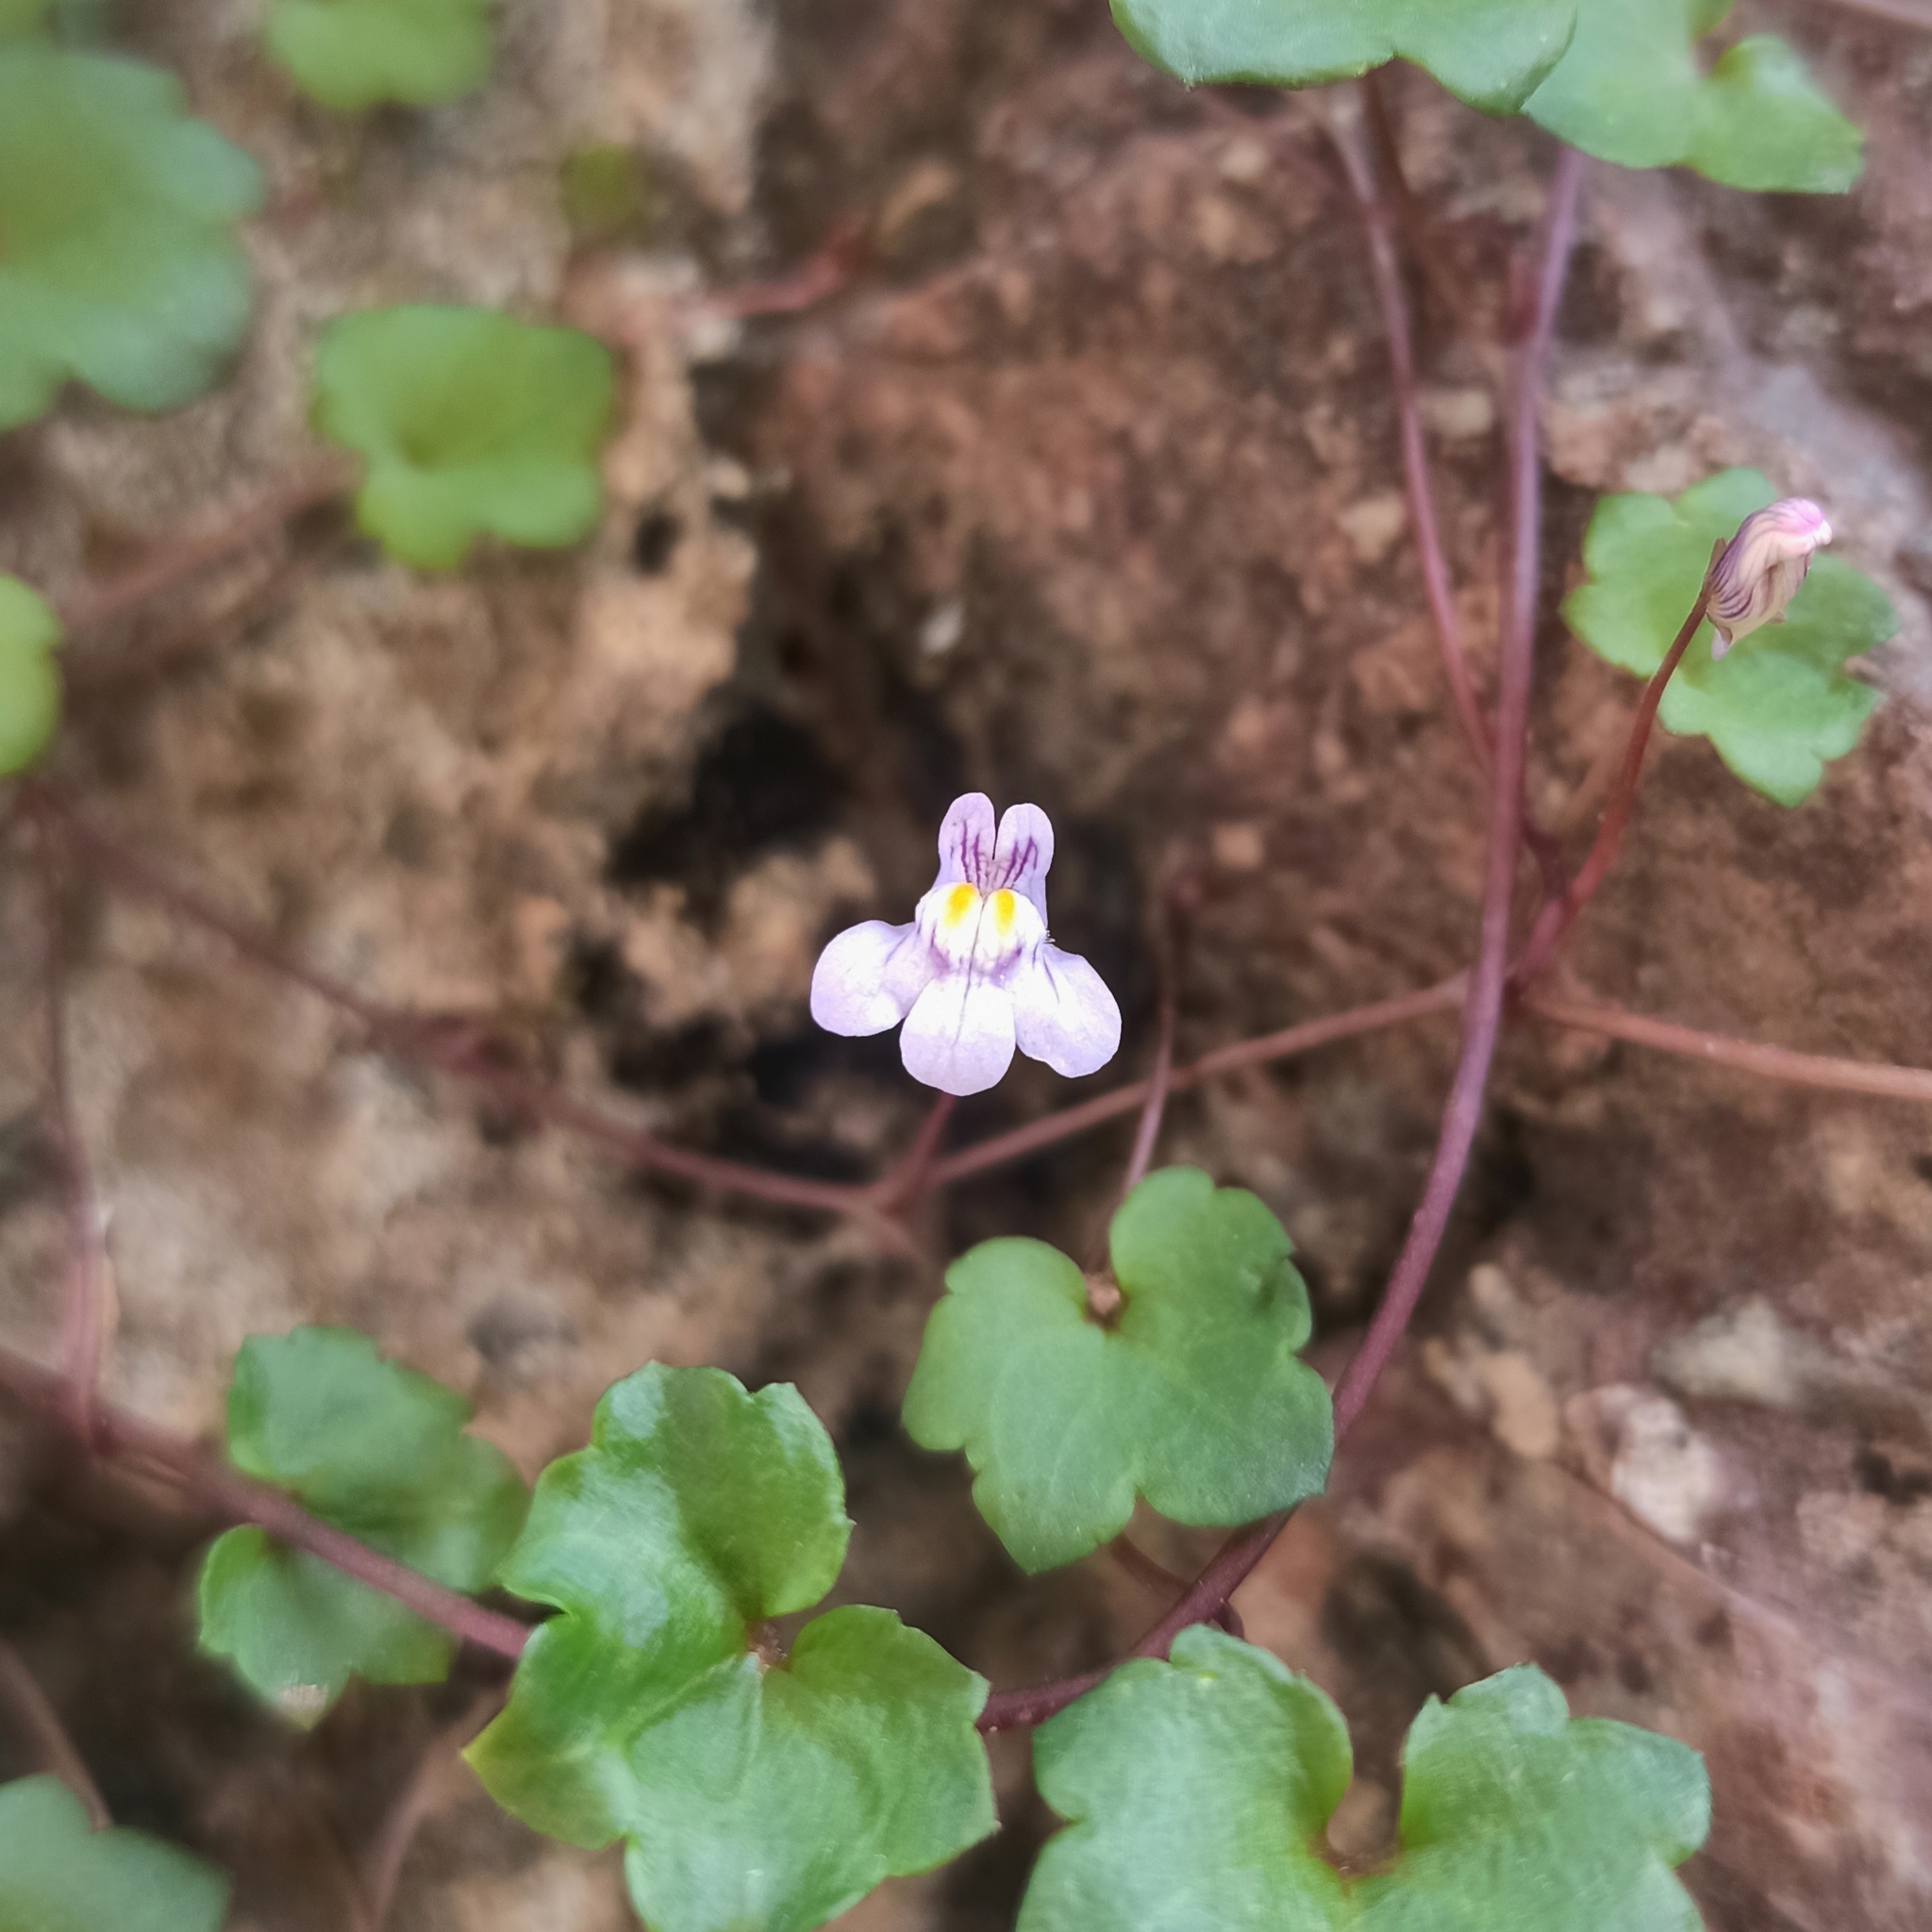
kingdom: Plantae
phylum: Tracheophyta
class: Magnoliopsida
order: Lamiales
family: Plantaginaceae
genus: Cymbalaria
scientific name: Cymbalaria muralis
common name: Ivy-leaved toadflax
